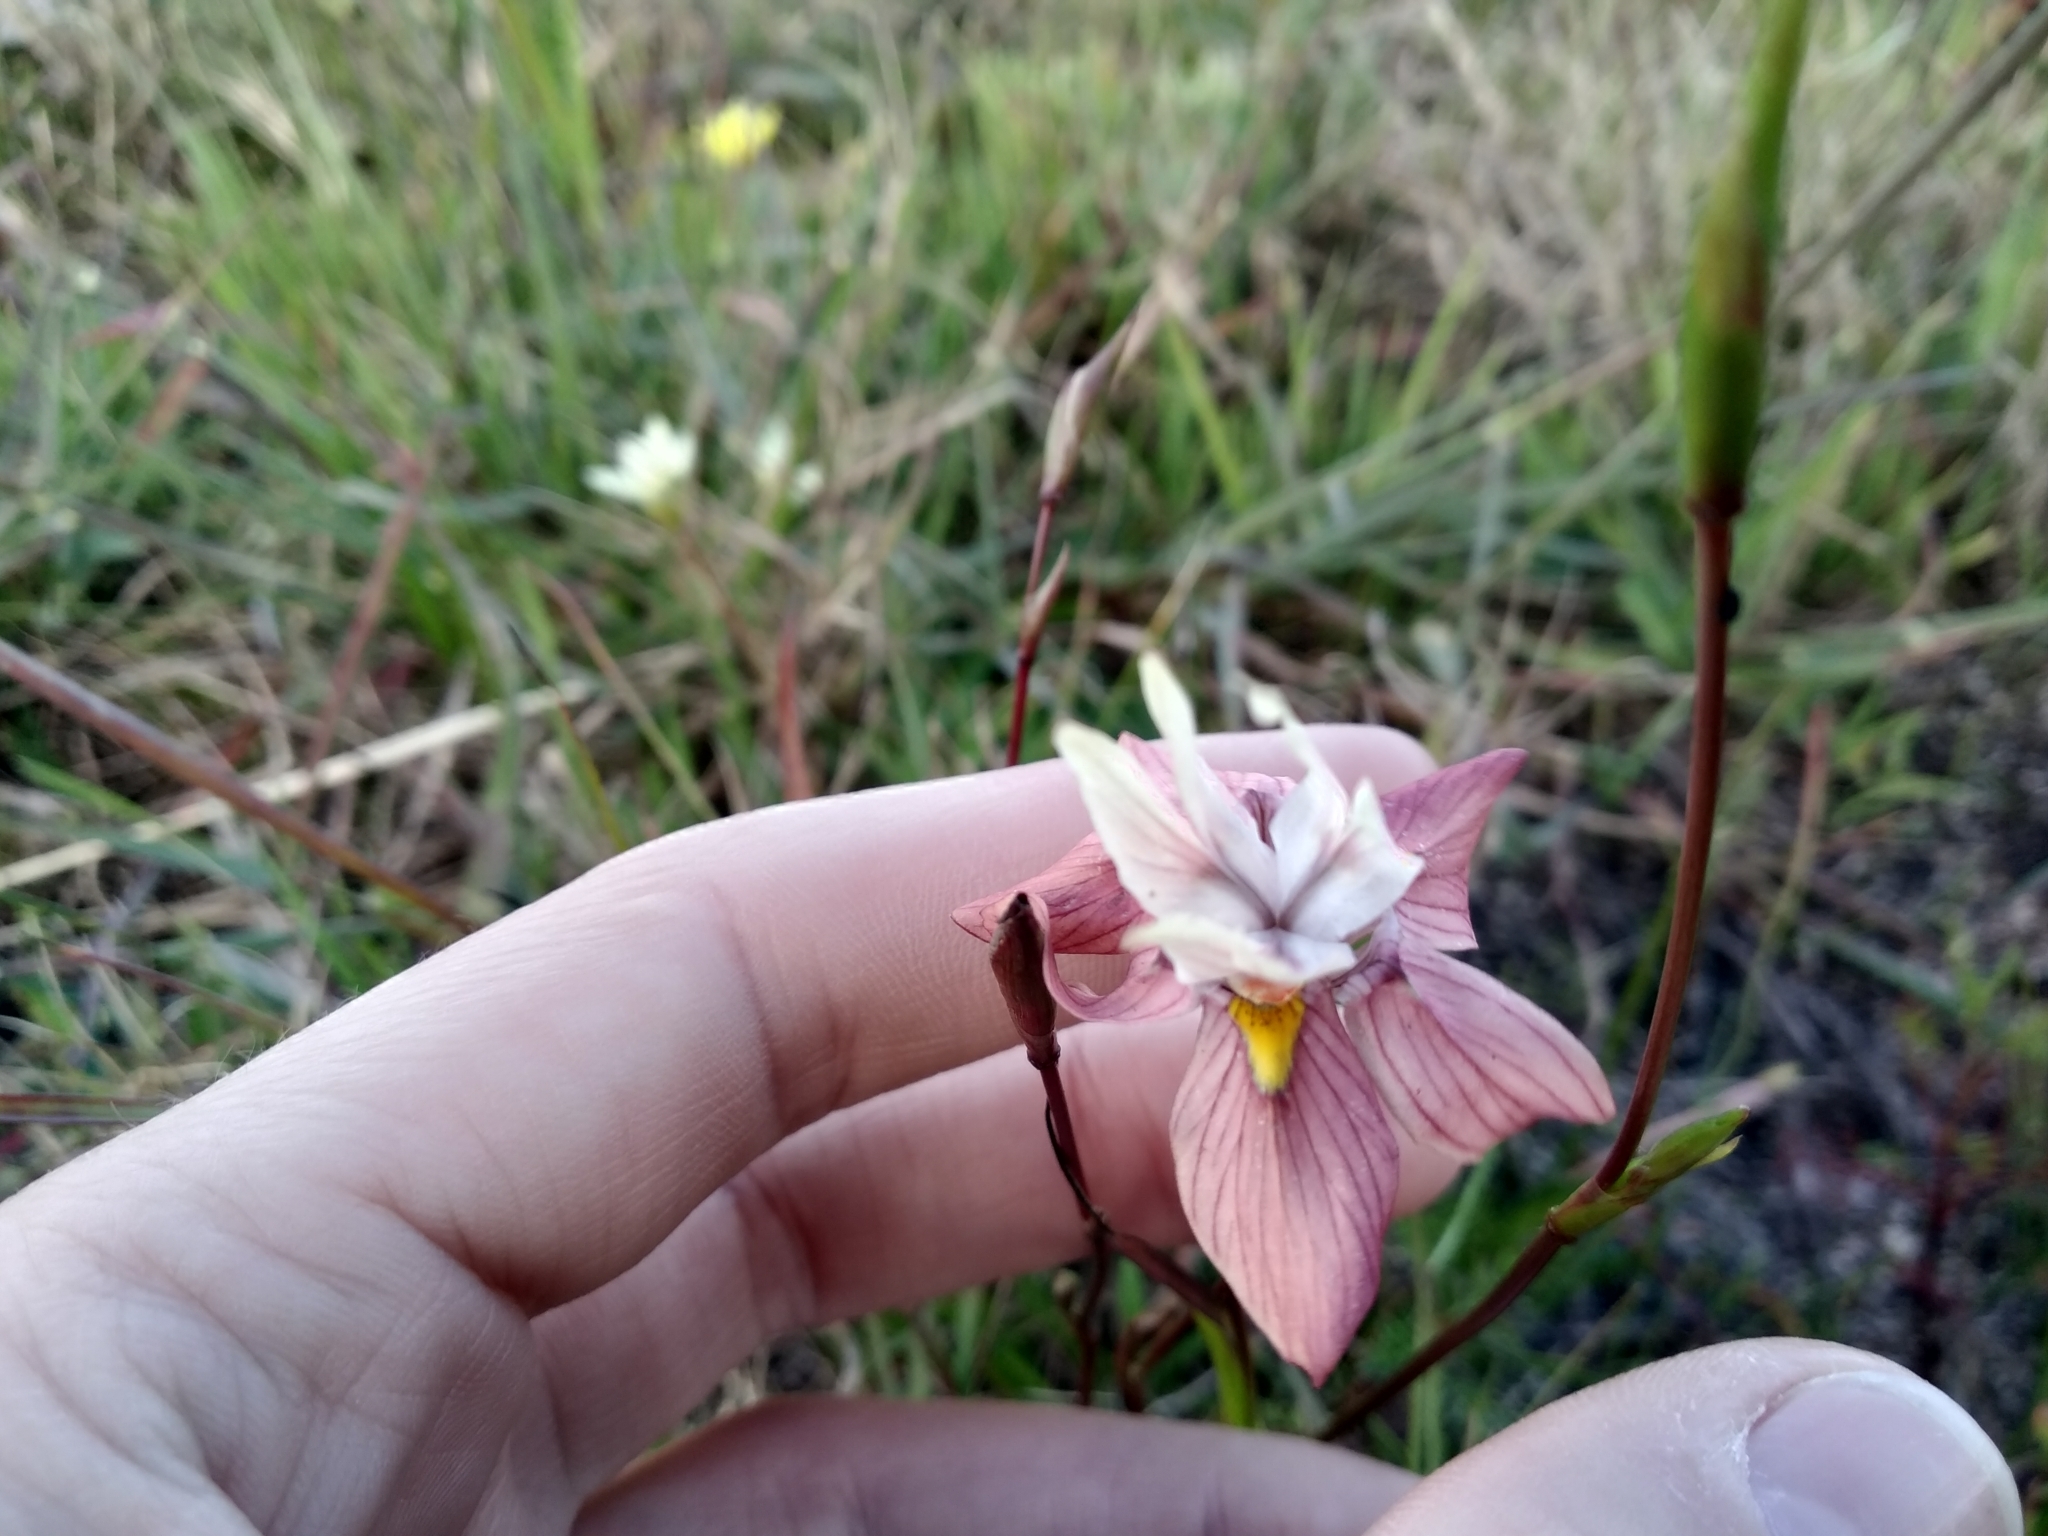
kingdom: Plantae
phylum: Tracheophyta
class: Liliopsida
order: Asparagales
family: Iridaceae
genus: Moraea
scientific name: Moraea gawleri
